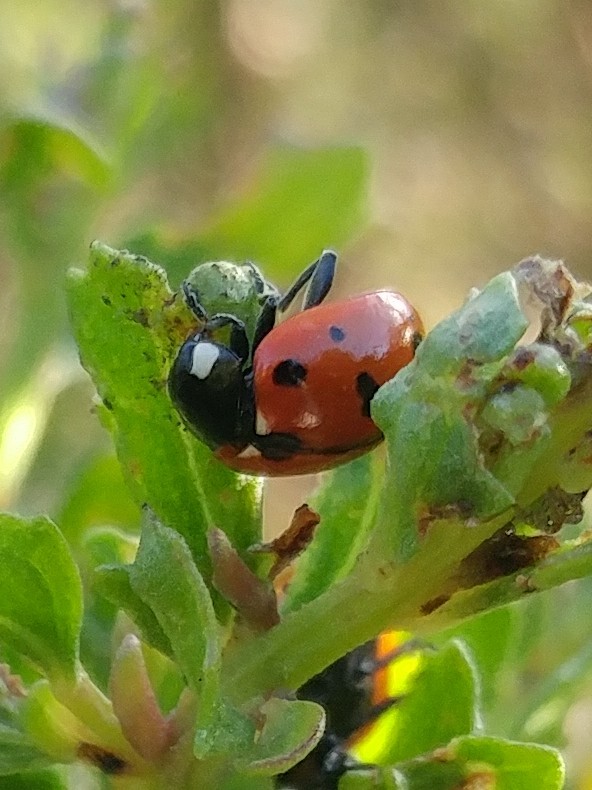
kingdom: Animalia
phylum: Arthropoda
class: Insecta
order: Coleoptera
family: Coccinellidae
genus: Coccinella
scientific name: Coccinella californica
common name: Lady beetle
